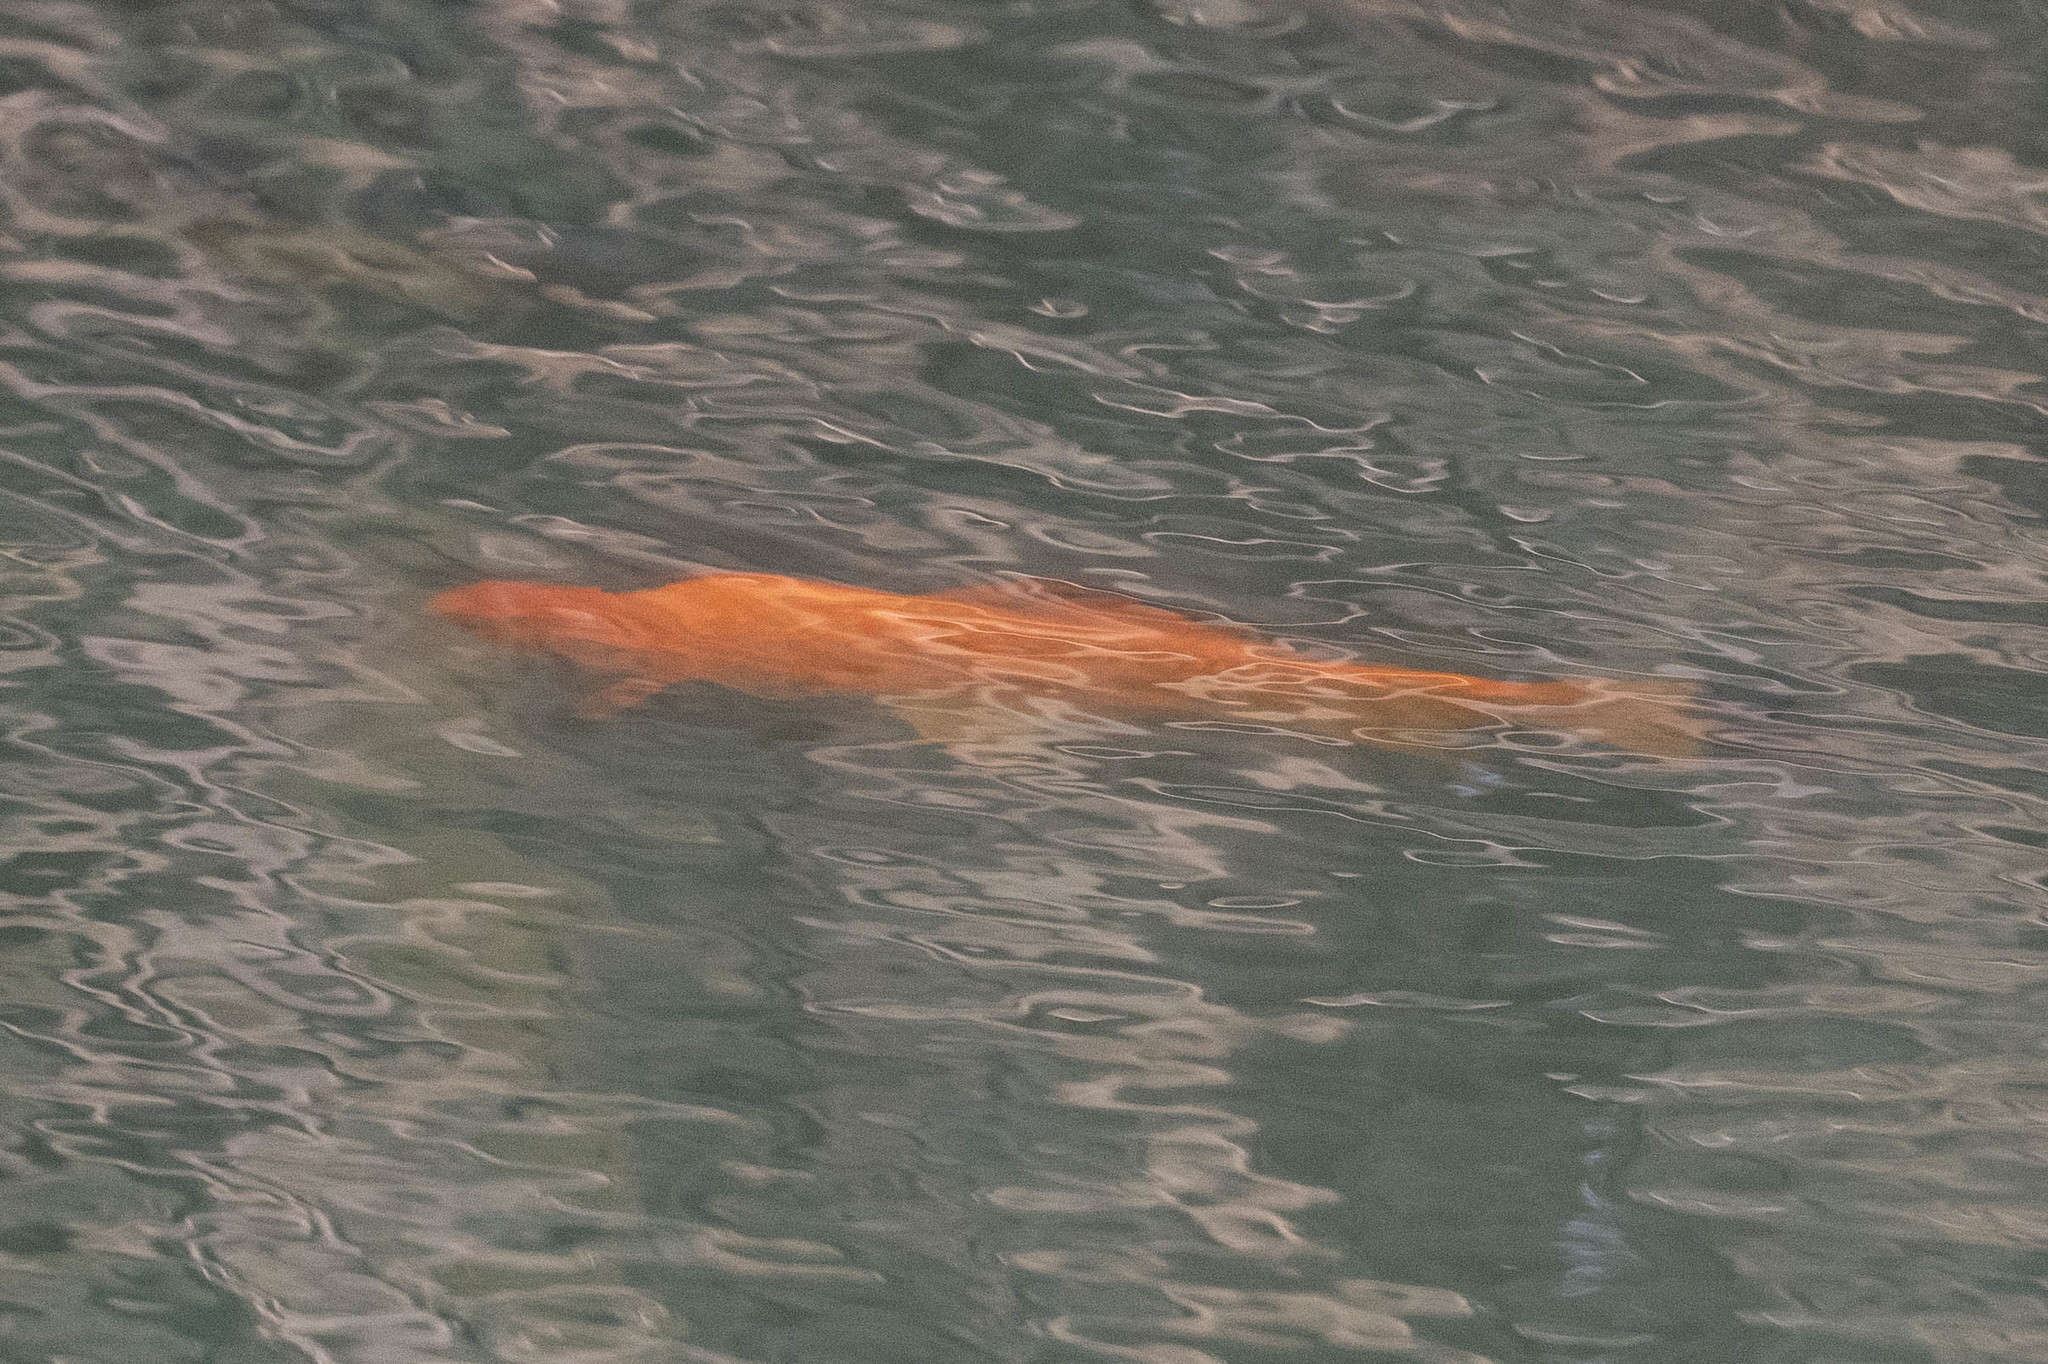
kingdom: Animalia
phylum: Chordata
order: Cypriniformes
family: Cyprinidae
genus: Carassius
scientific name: Carassius auratus
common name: Goldfish
